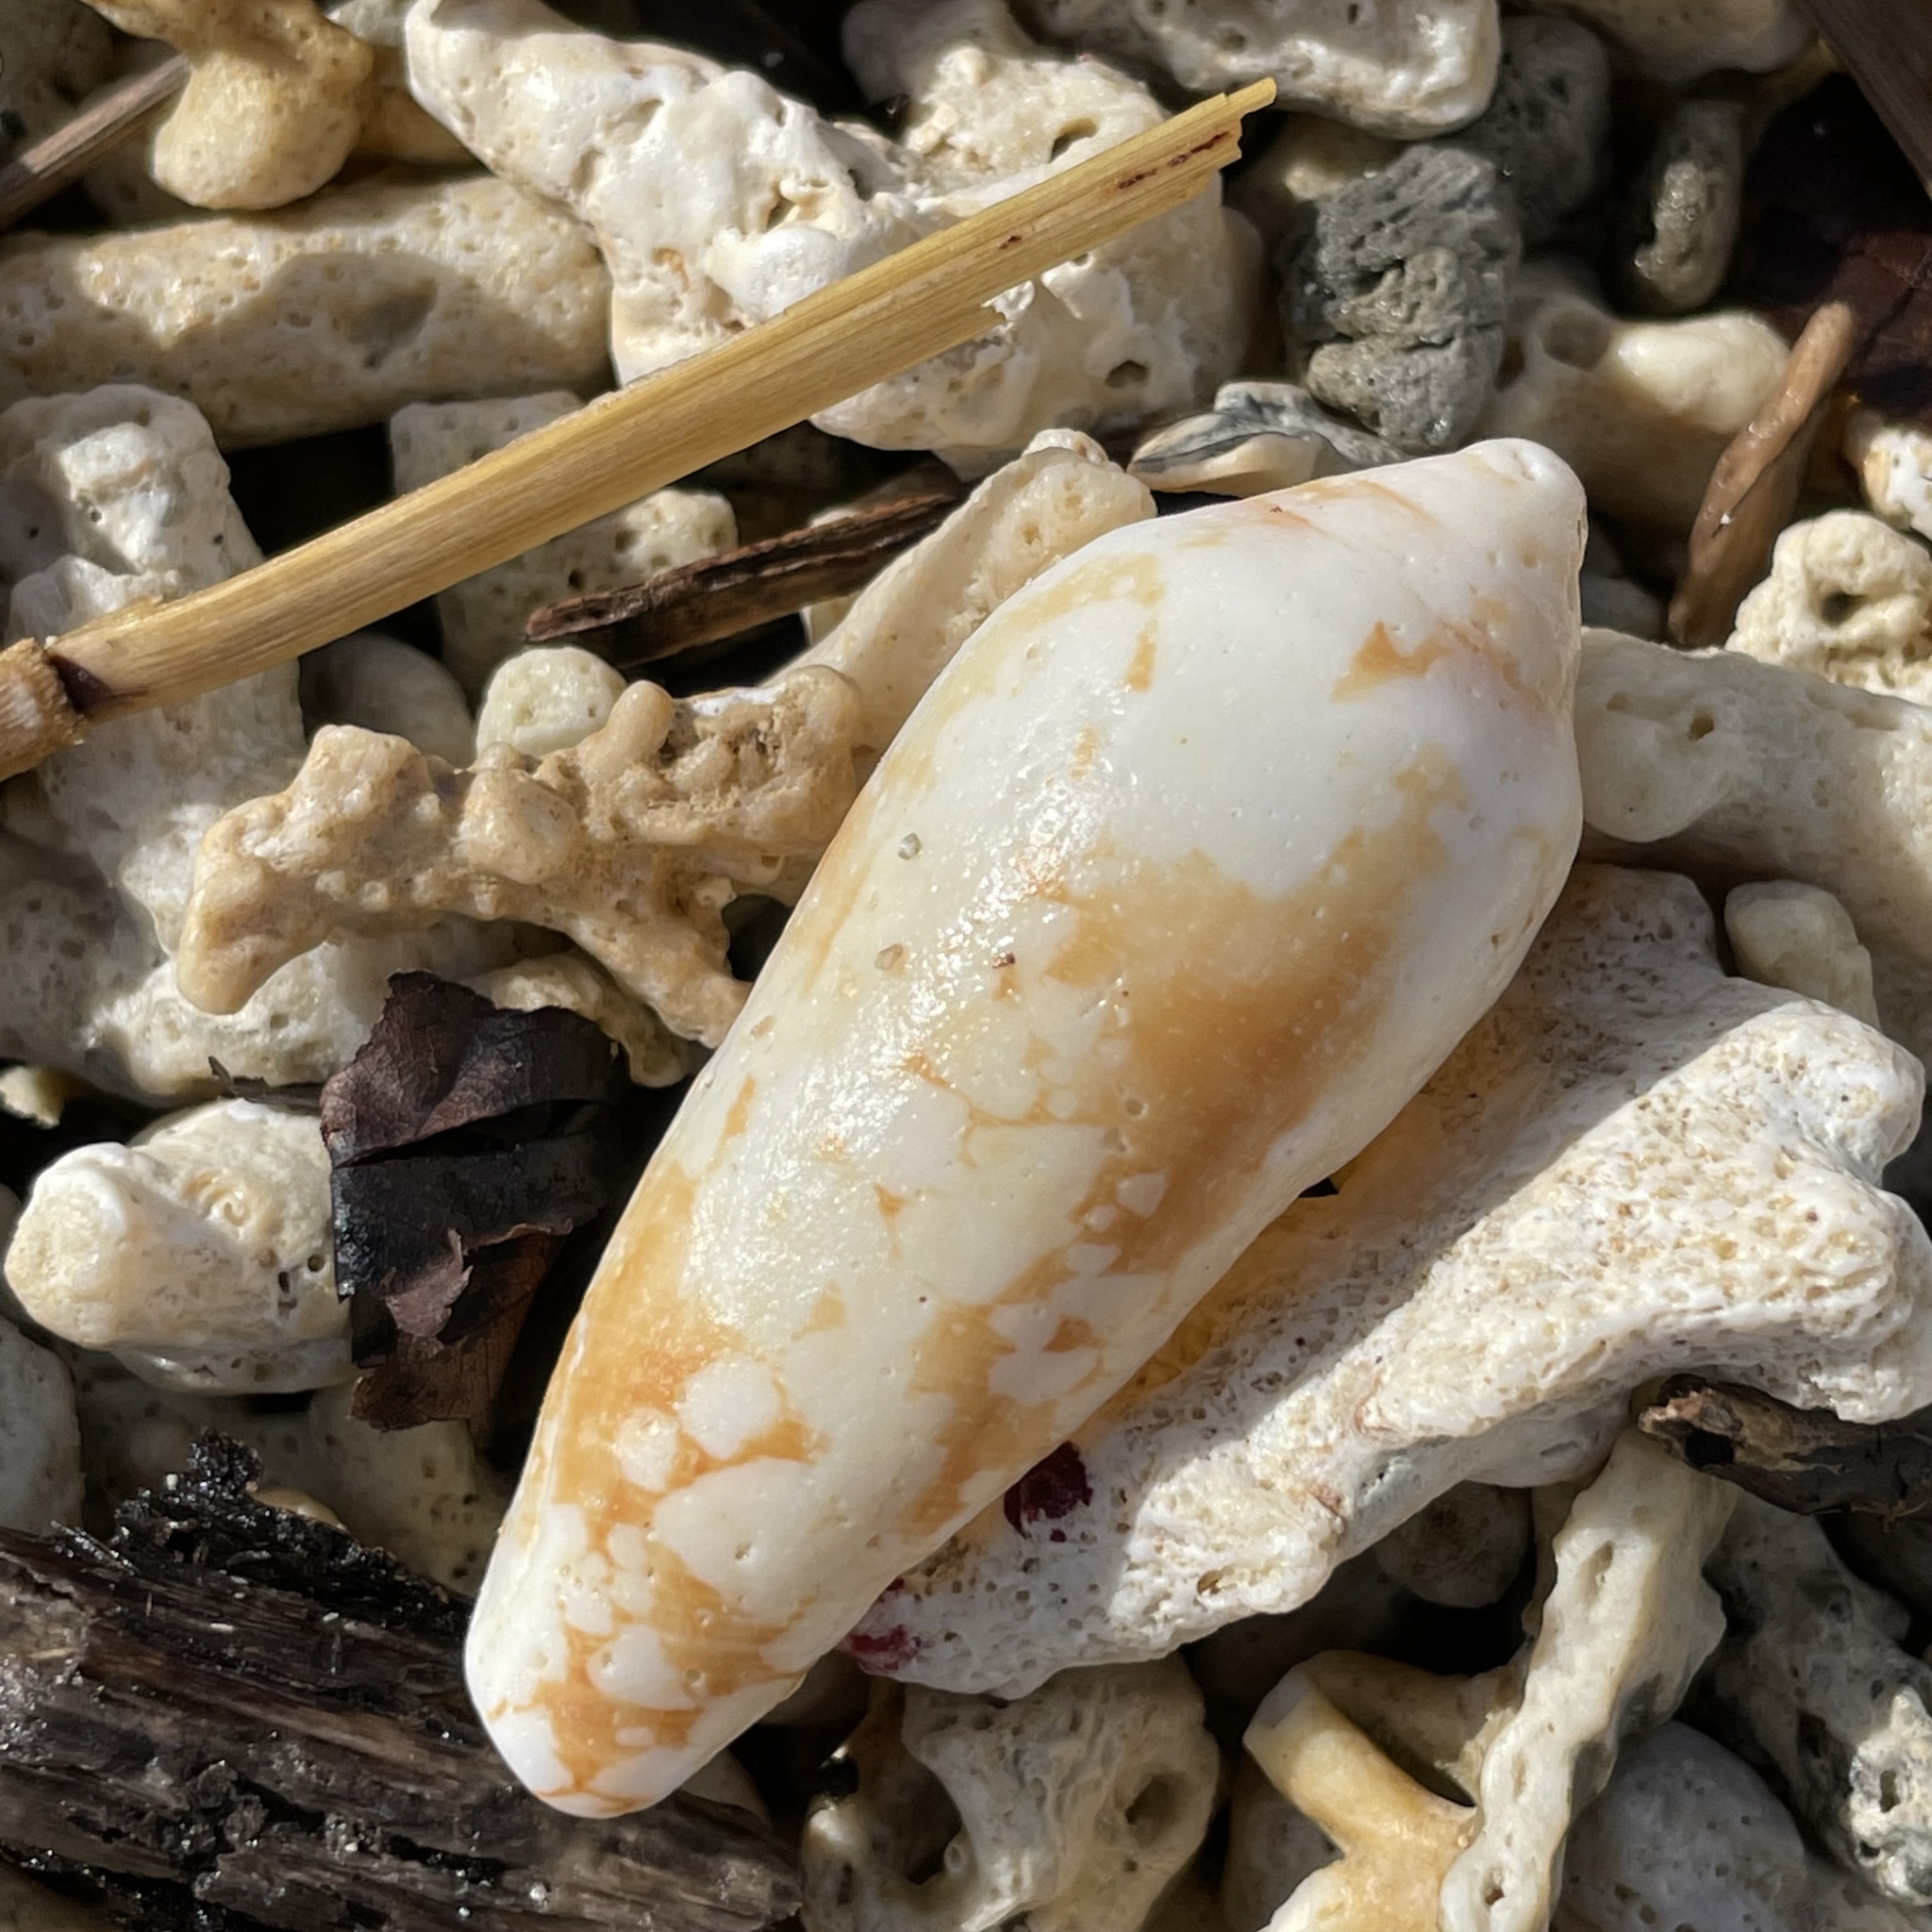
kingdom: Animalia
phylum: Mollusca
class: Gastropoda
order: Neogastropoda
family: Conidae
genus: Conus
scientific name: Conus magnificus
